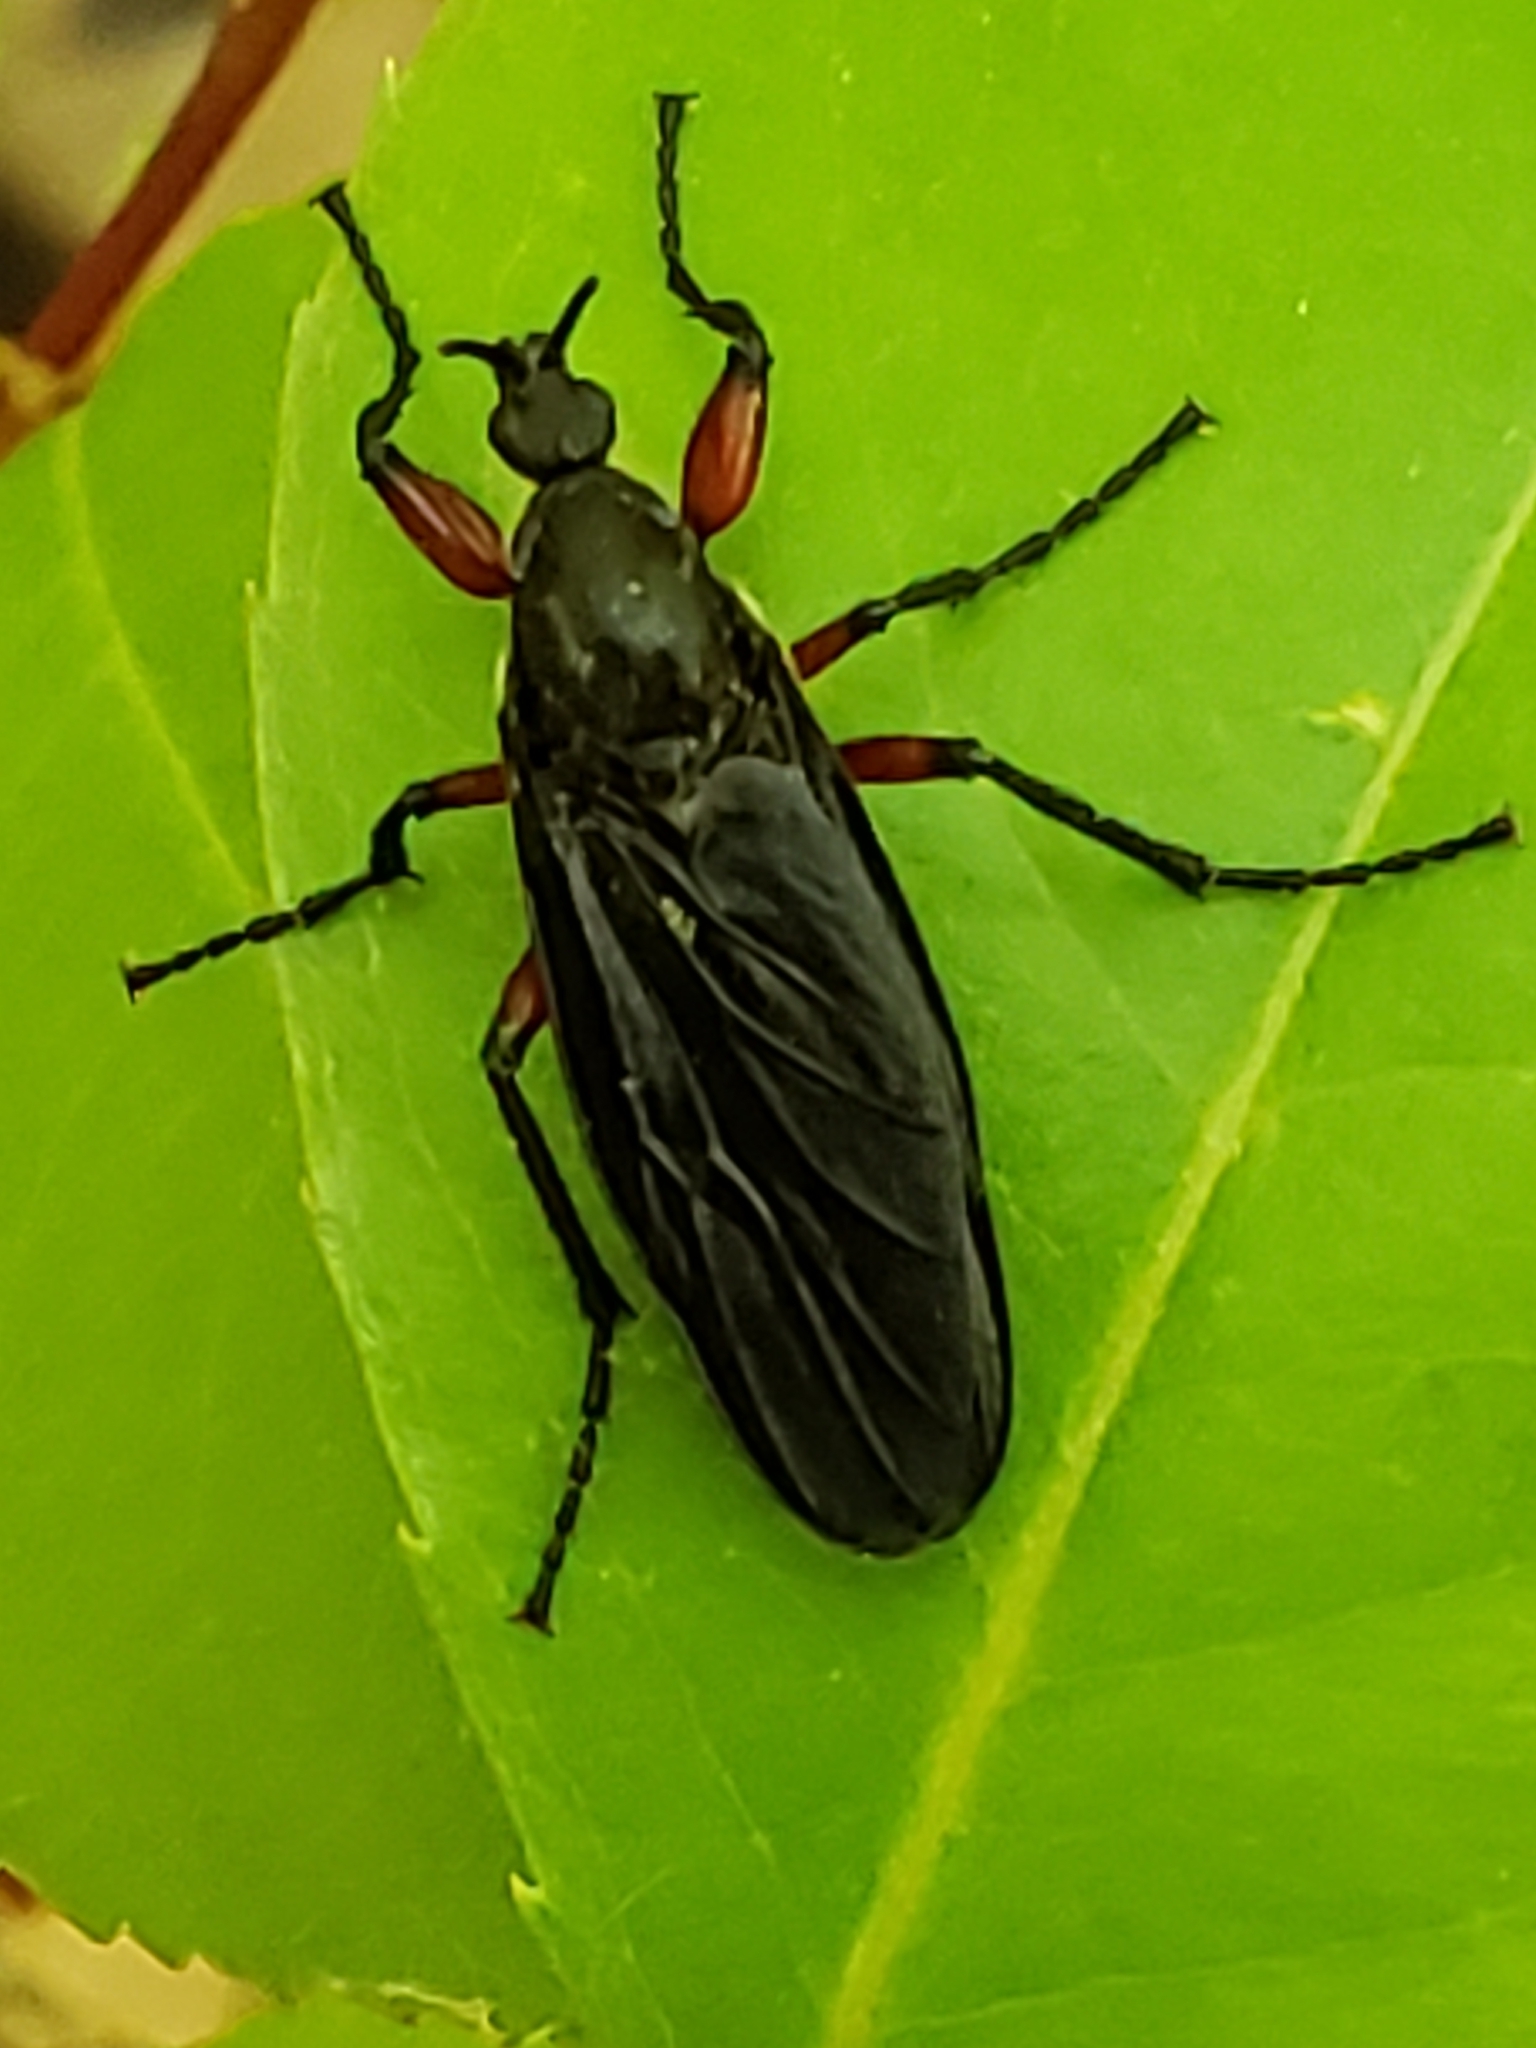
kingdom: Animalia
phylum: Arthropoda
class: Insecta
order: Diptera
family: Bibionidae
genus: Bibio
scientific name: Bibio femoratus
